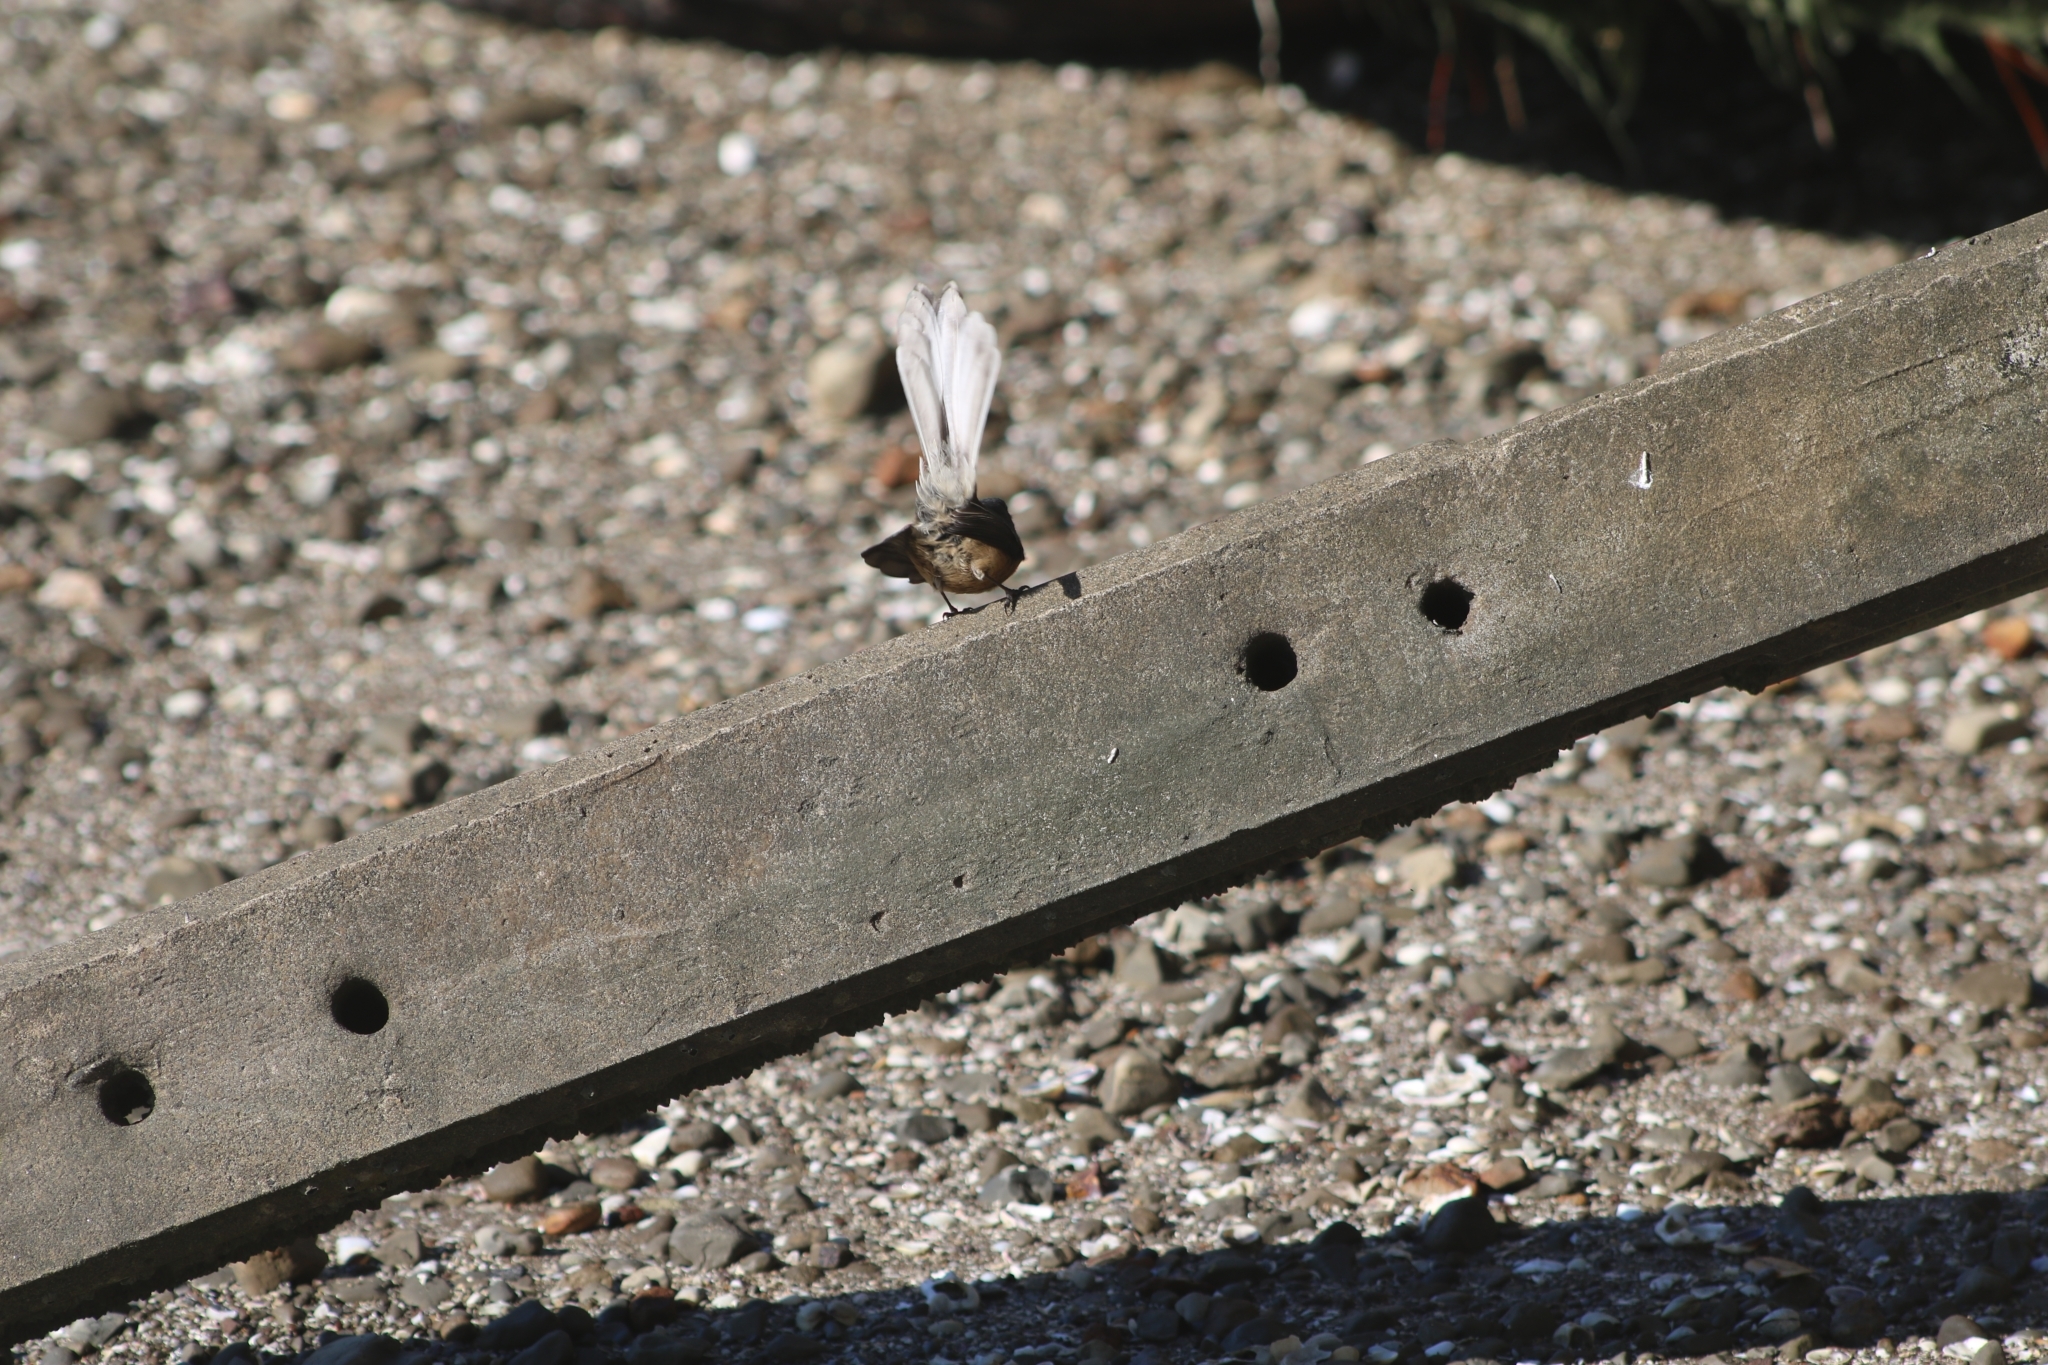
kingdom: Animalia
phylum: Chordata
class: Aves
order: Passeriformes
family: Rhipiduridae
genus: Rhipidura
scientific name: Rhipidura fuliginosa
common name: New zealand fantail
